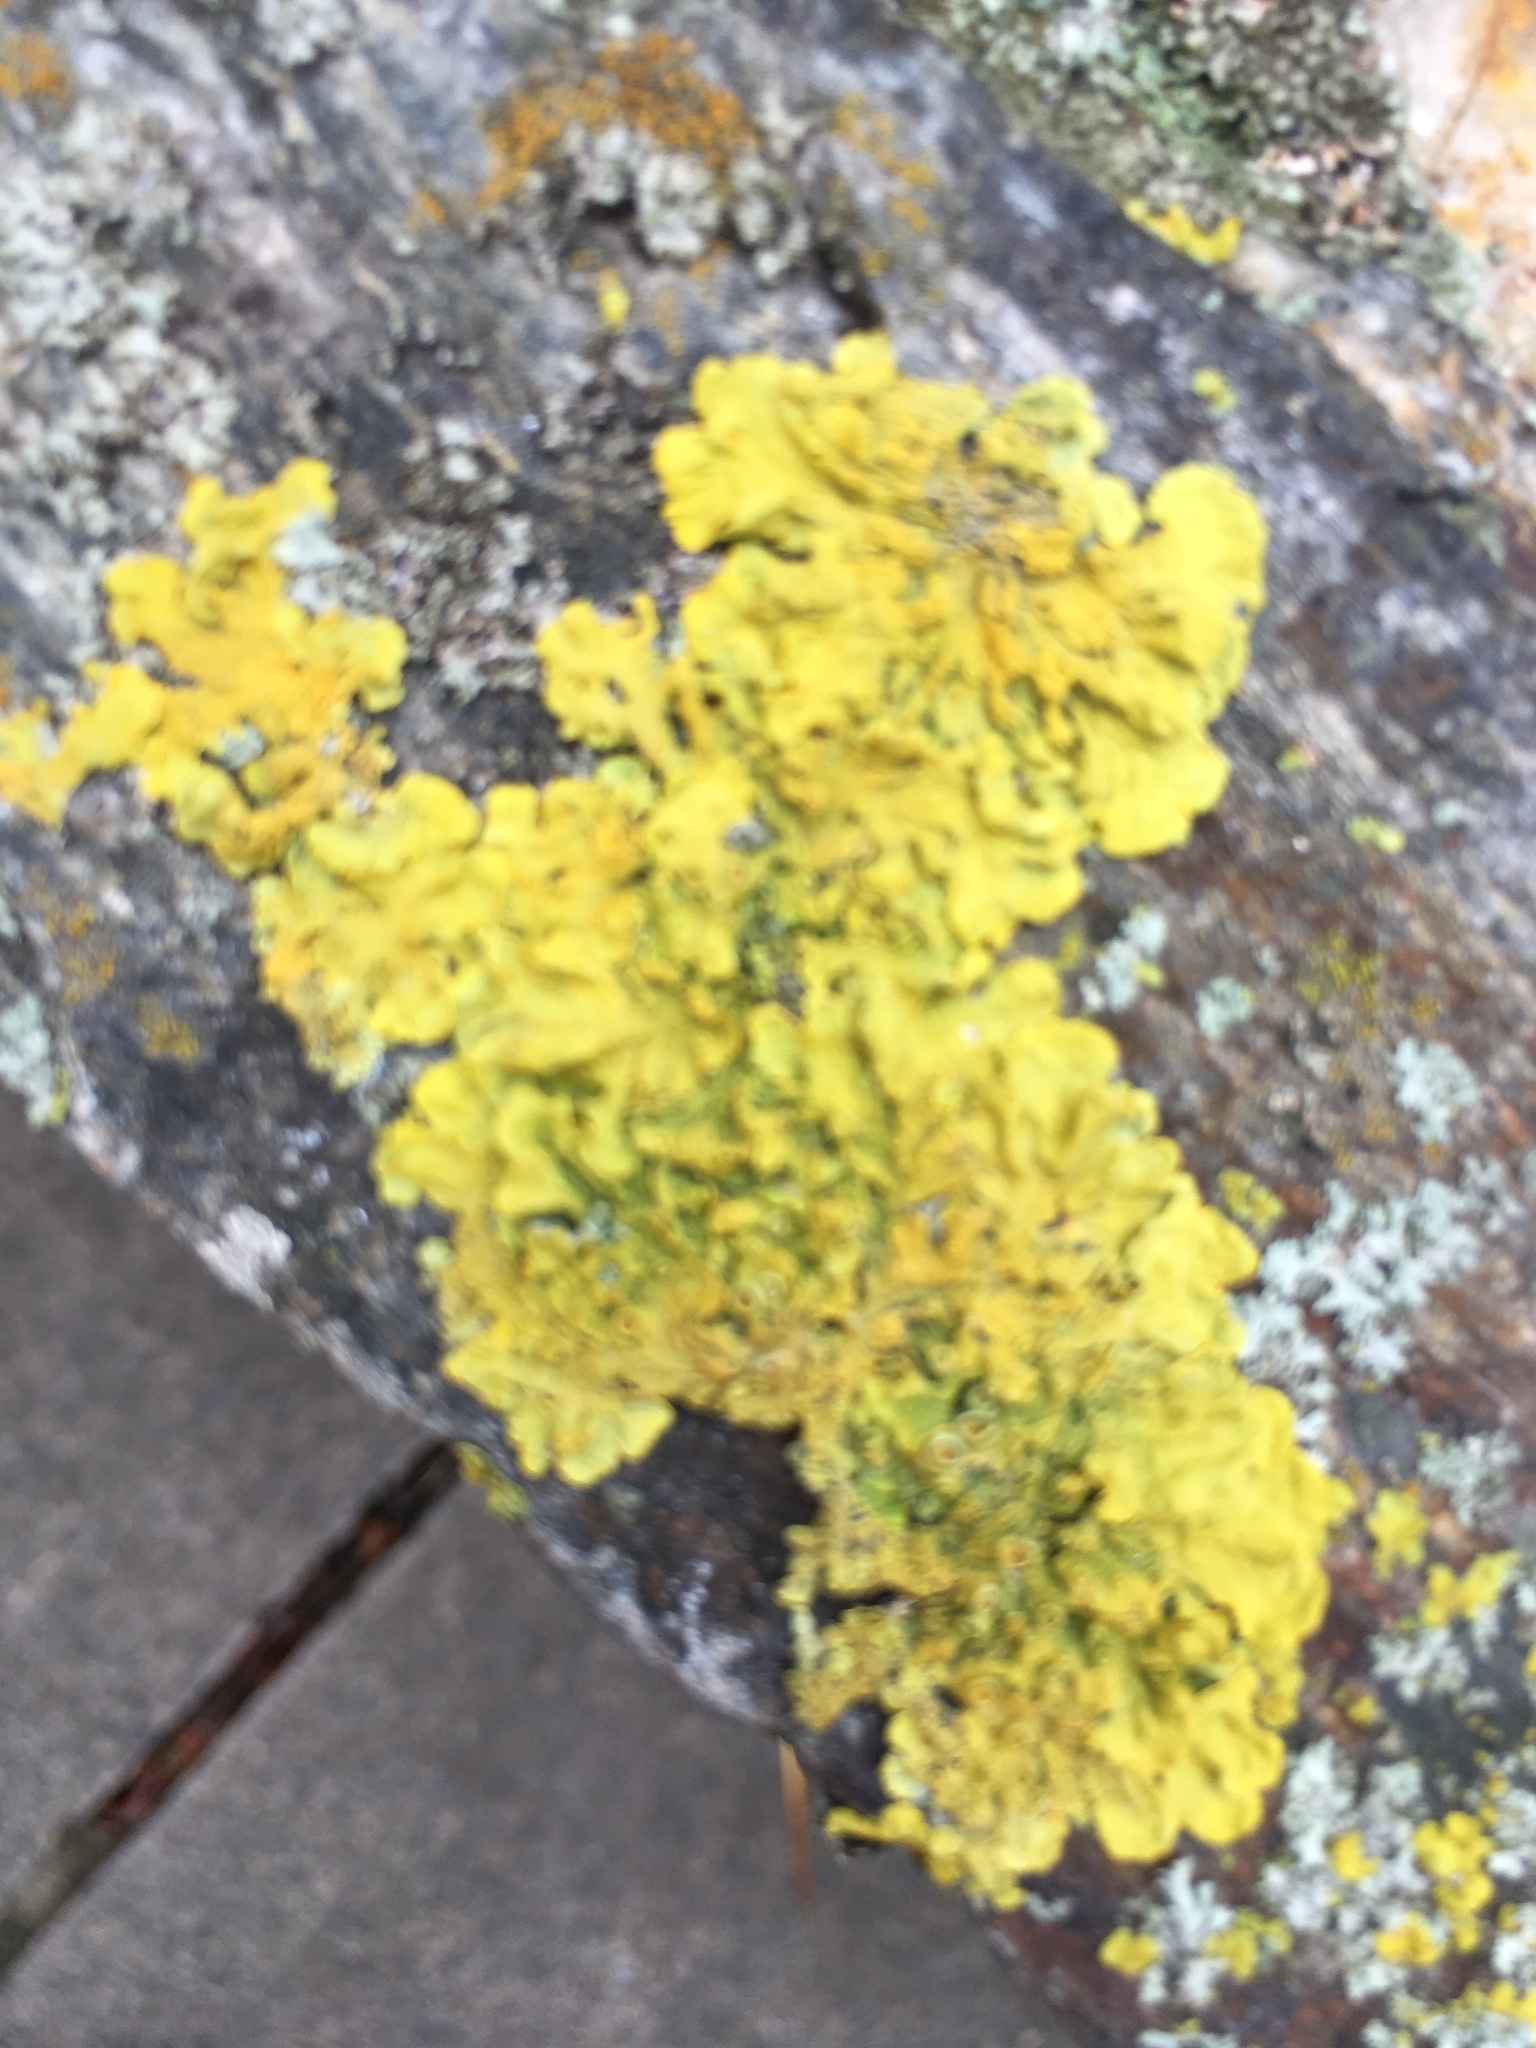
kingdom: Fungi
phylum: Ascomycota
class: Lecanoromycetes
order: Teloschistales
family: Teloschistaceae
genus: Xanthoria
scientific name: Xanthoria parietina
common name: Common orange lichen
